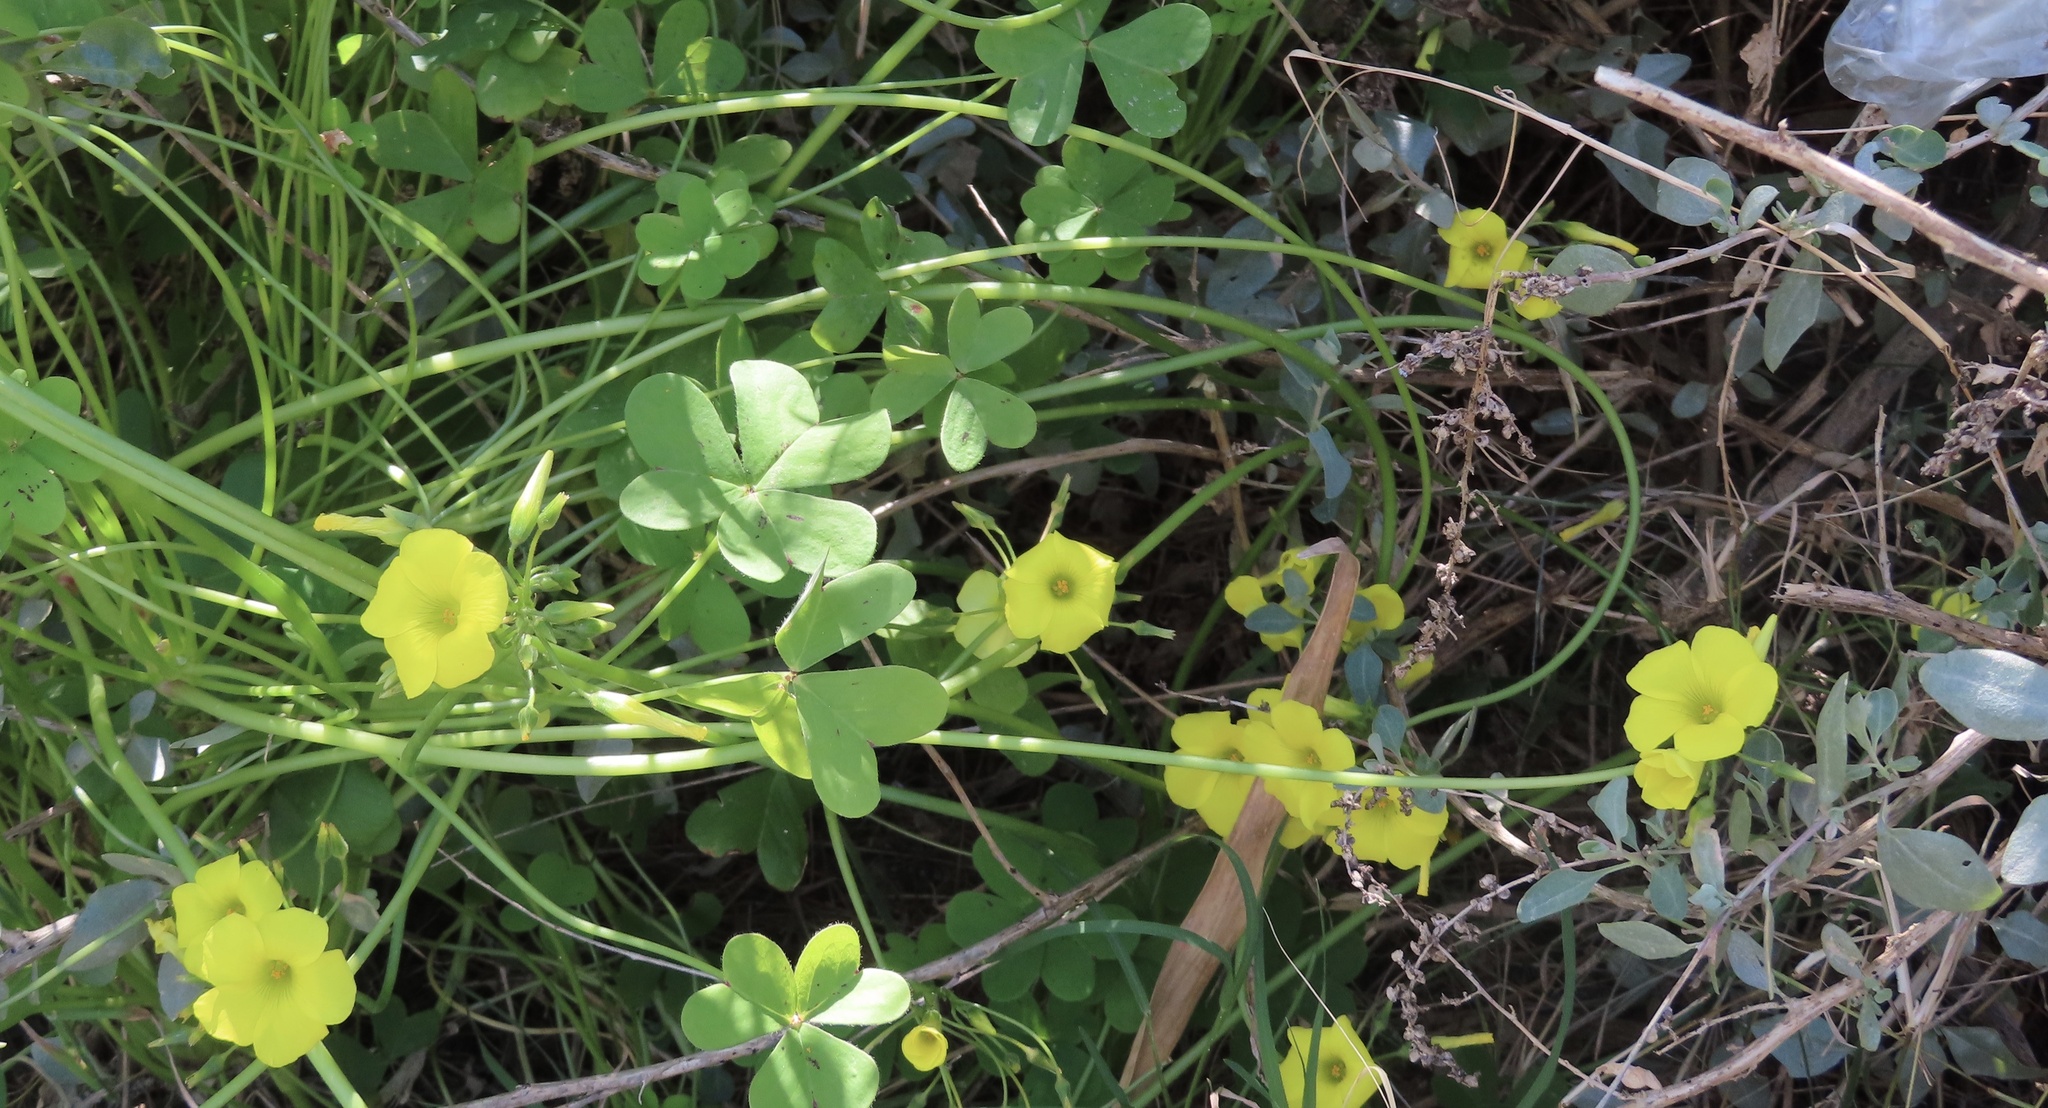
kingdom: Plantae
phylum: Tracheophyta
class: Magnoliopsida
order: Oxalidales
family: Oxalidaceae
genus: Oxalis
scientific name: Oxalis pes-caprae
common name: Bermuda-buttercup
